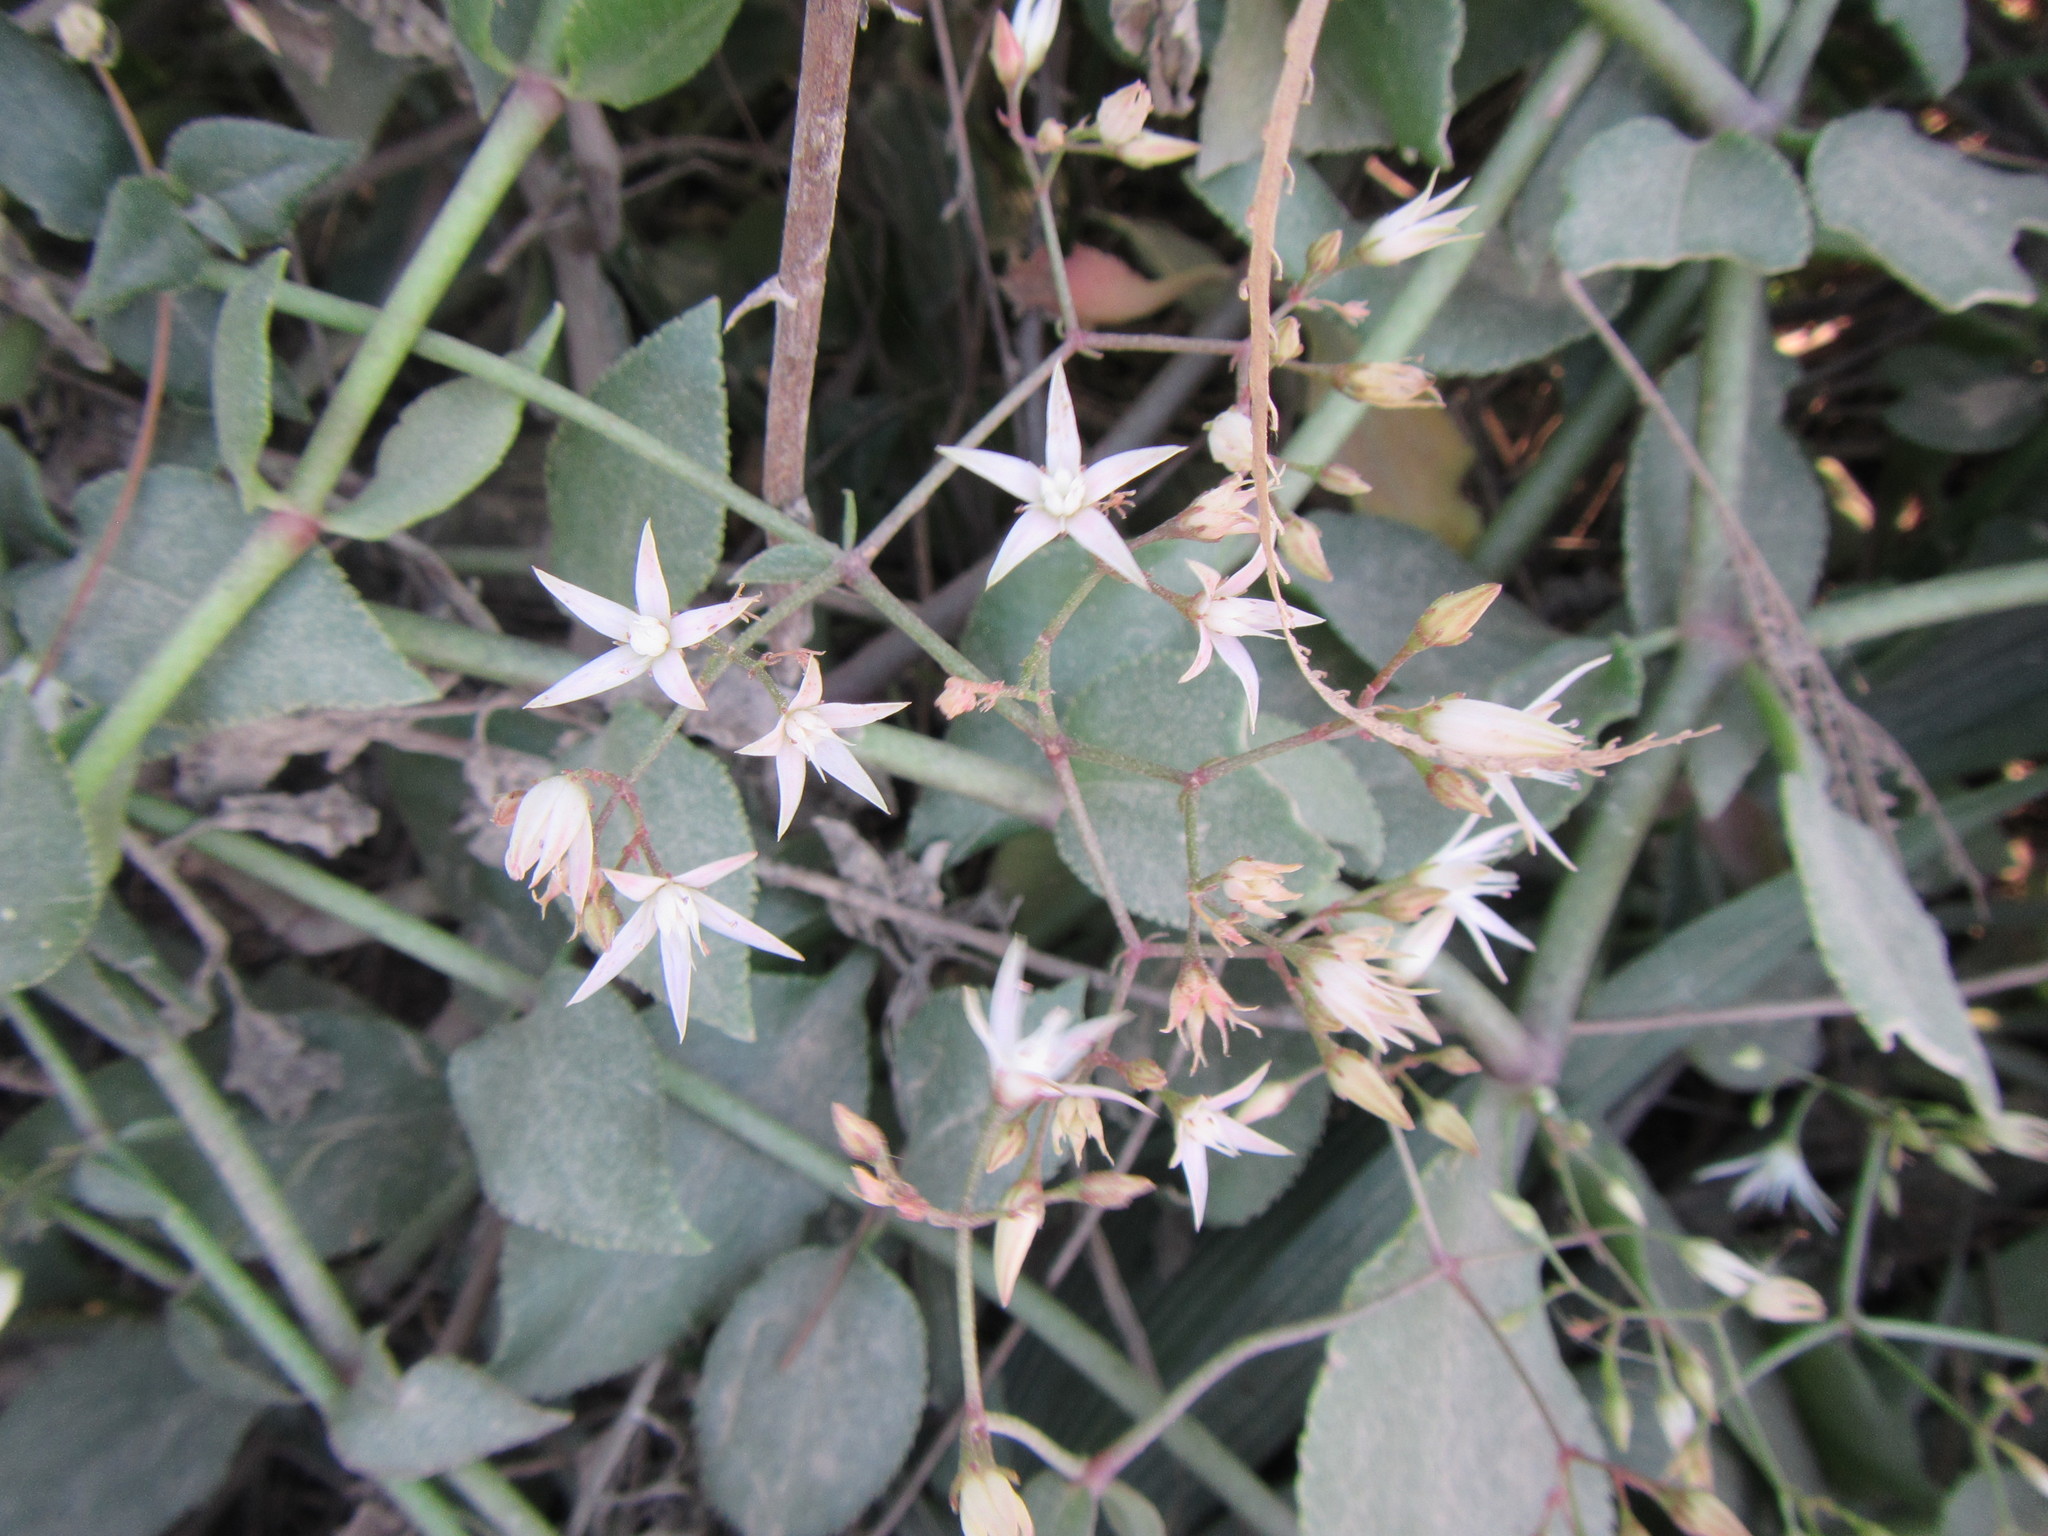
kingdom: Plantae
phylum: Tracheophyta
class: Magnoliopsida
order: Saxifragales
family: Crassulaceae
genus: Crassula
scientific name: Crassula sarmentosa
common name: Jade-tree
